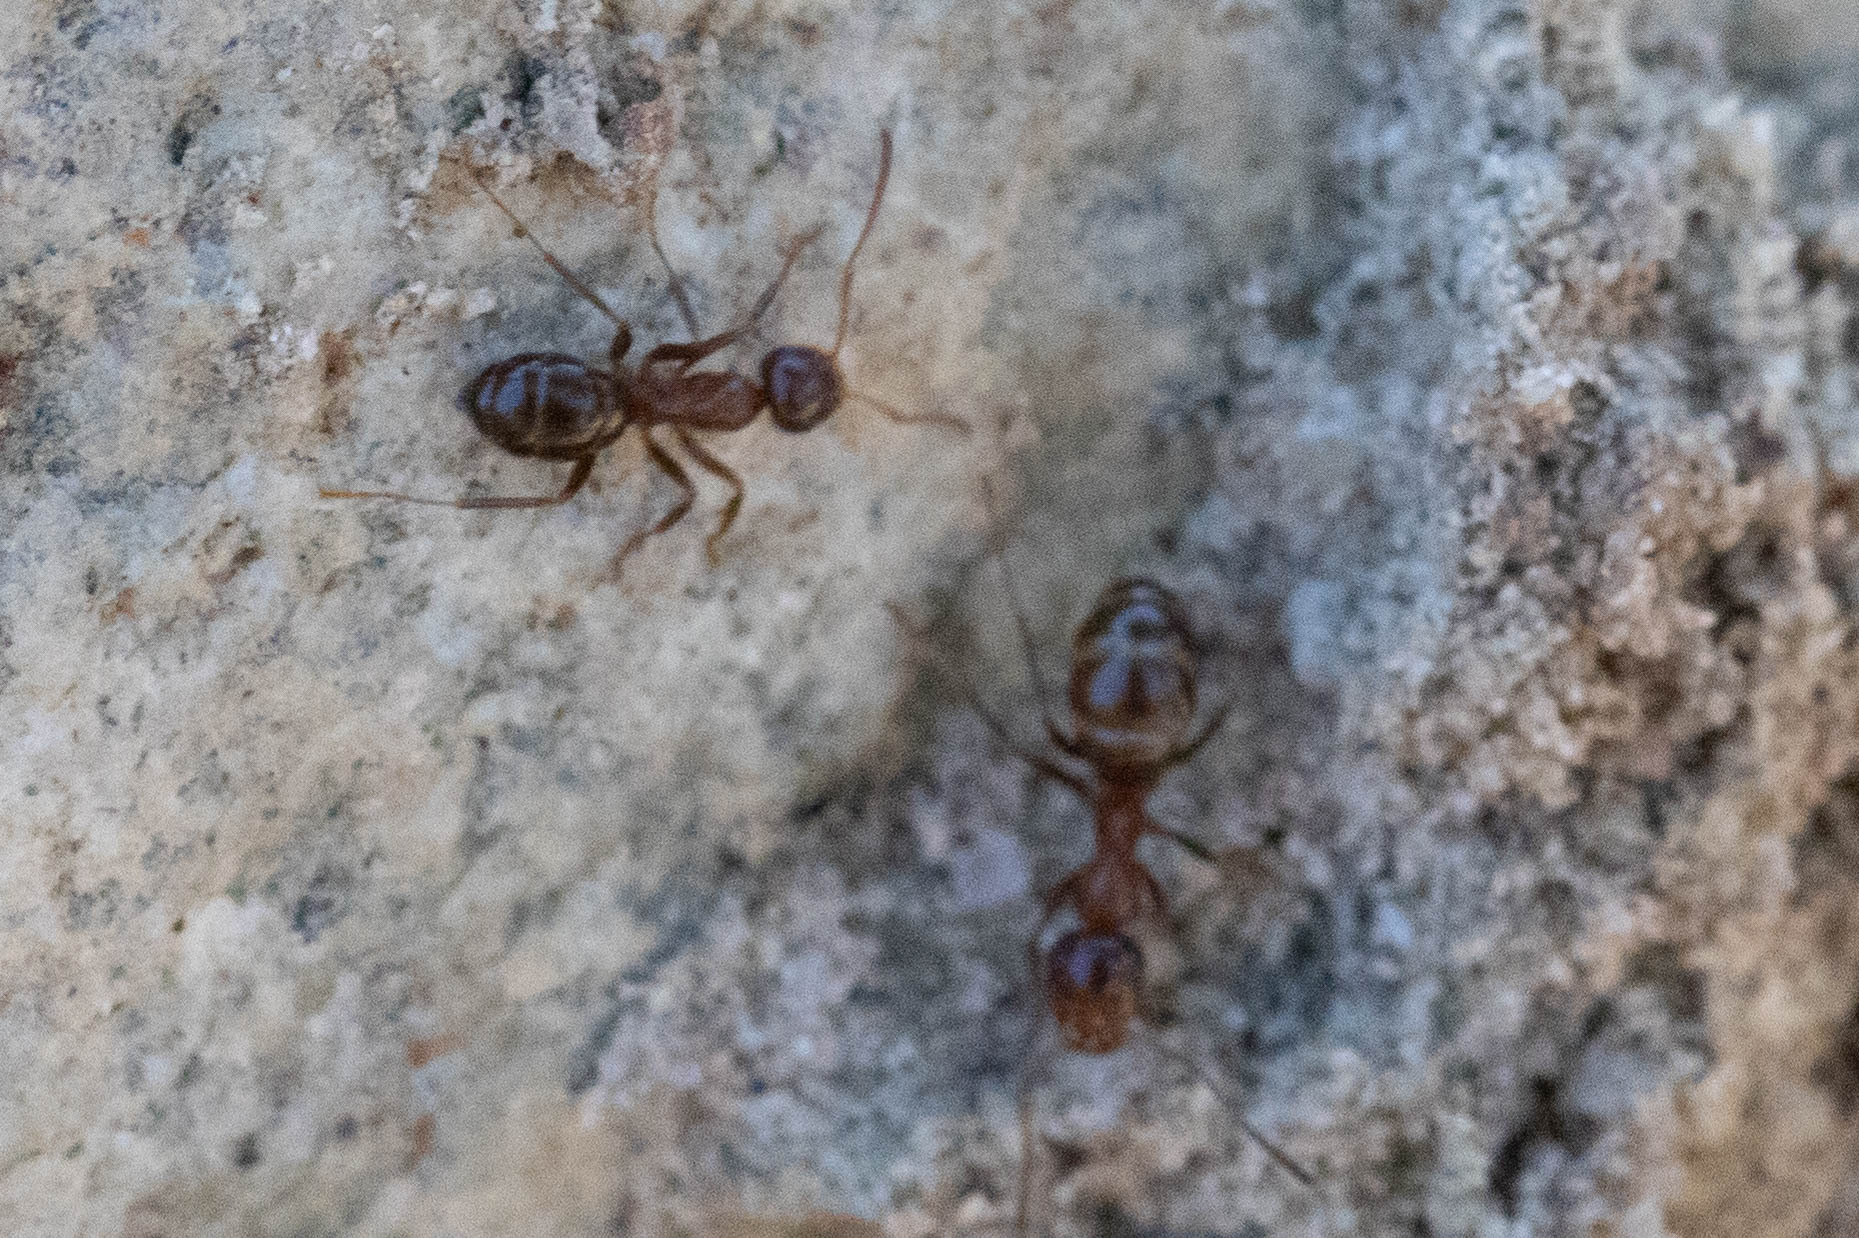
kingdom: Animalia
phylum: Arthropoda
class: Insecta
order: Hymenoptera
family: Formicidae
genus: Formica
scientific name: Formica subpolita
